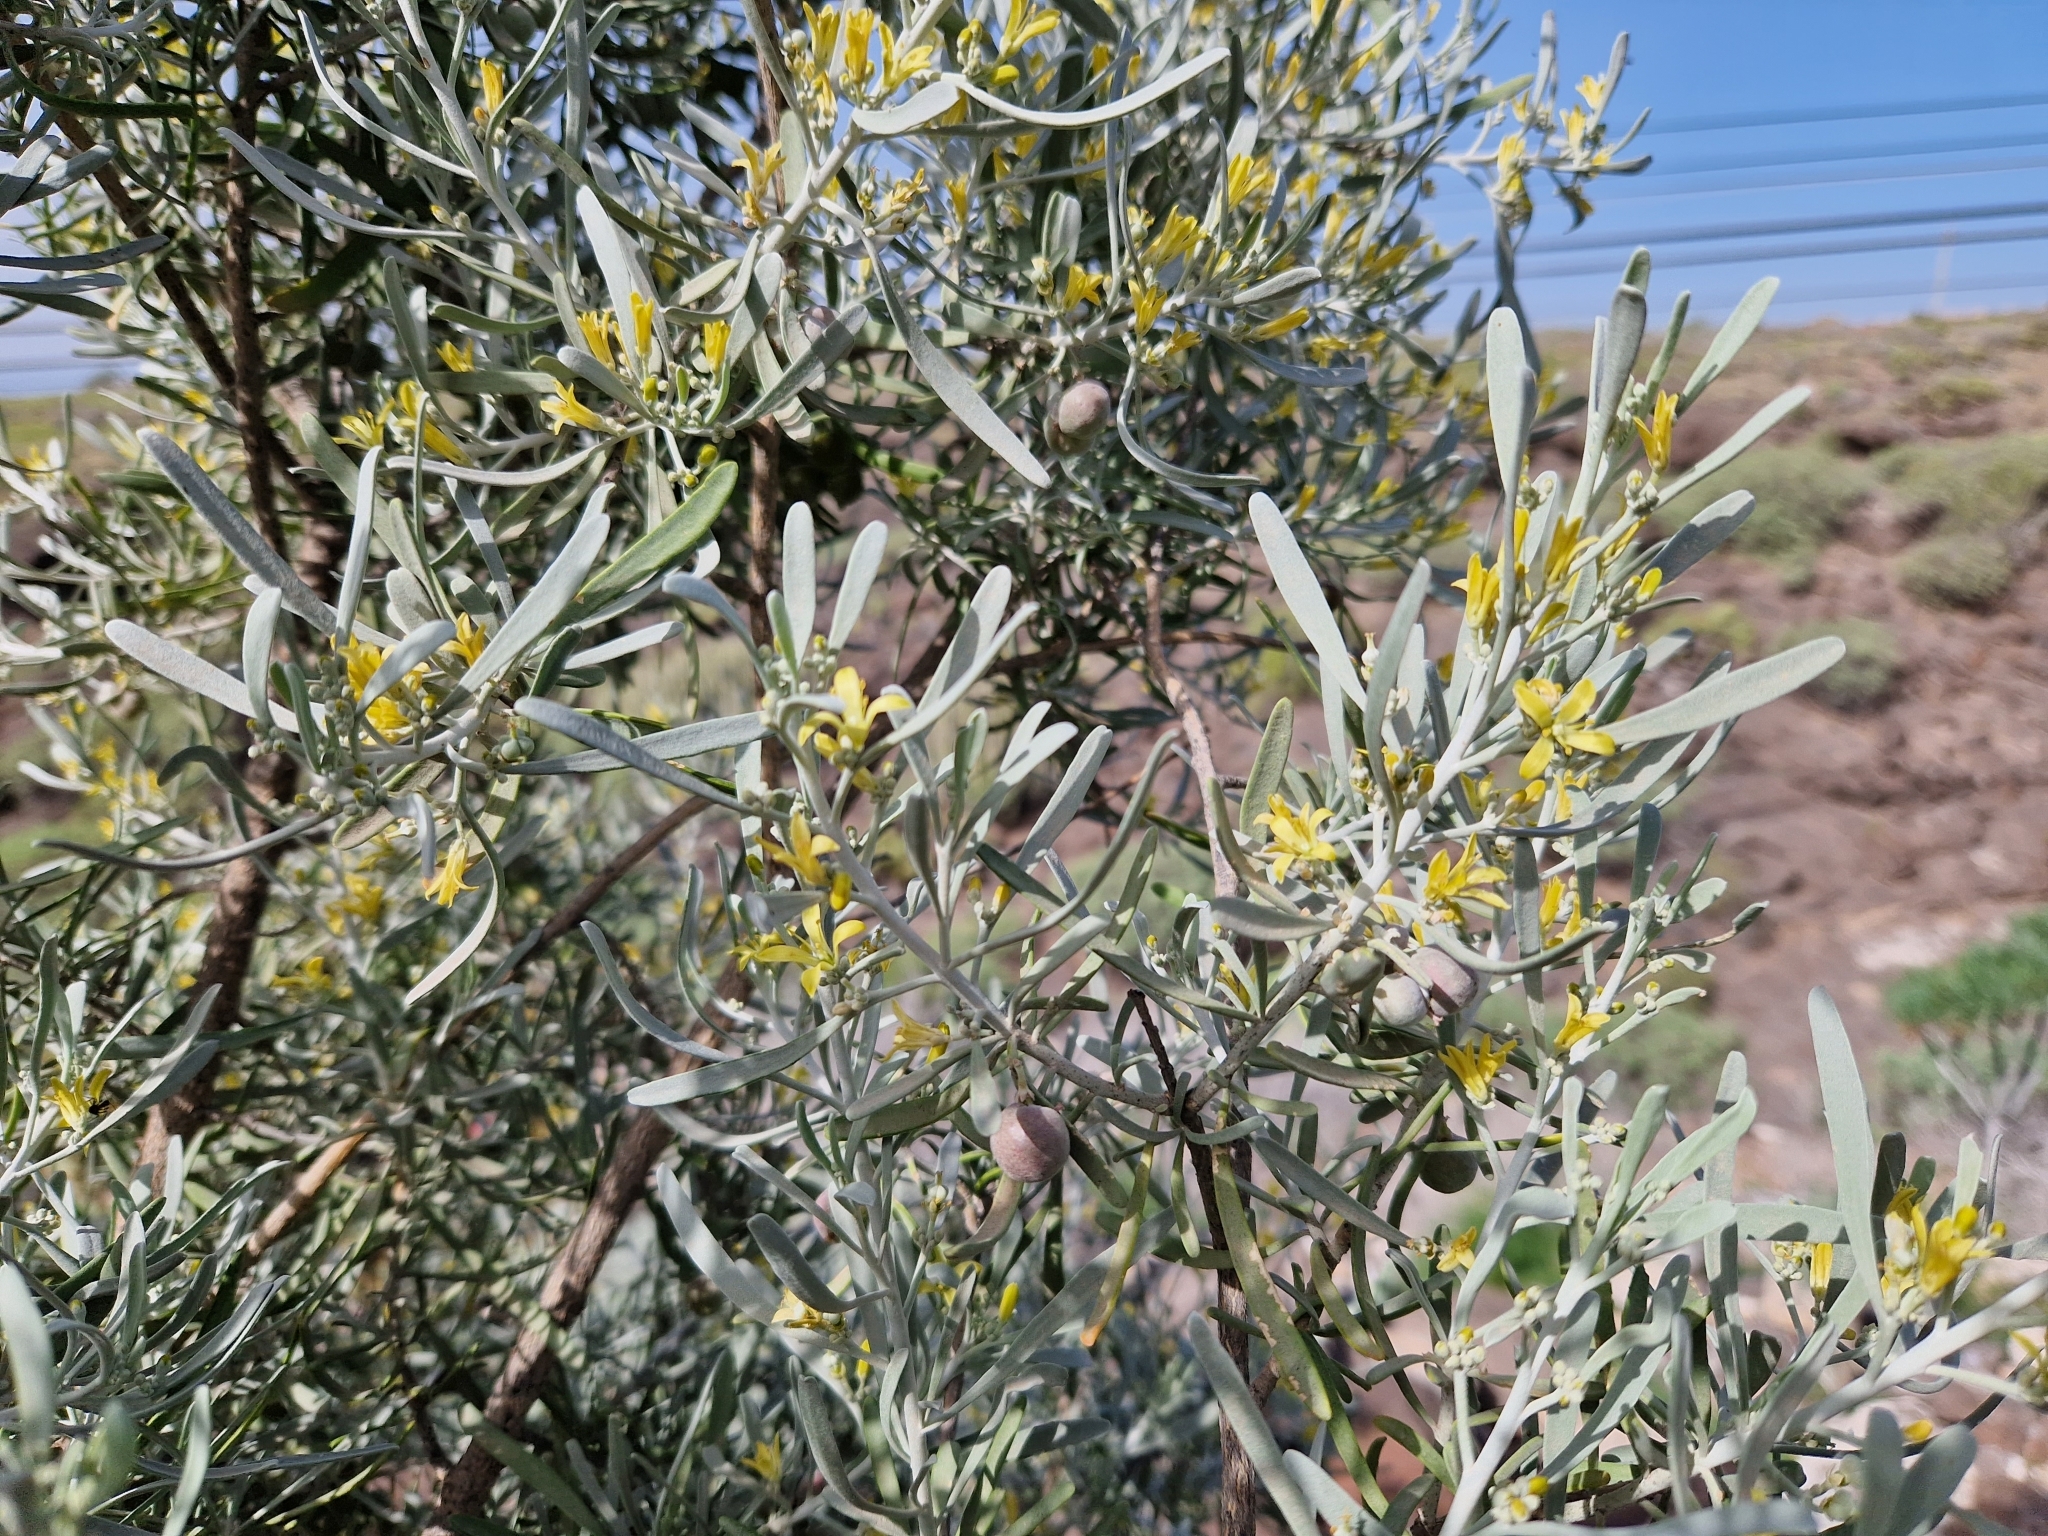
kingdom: Plantae
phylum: Tracheophyta
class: Magnoliopsida
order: Sapindales
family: Rutaceae
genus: Cneorum
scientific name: Cneorum pulverulentum
